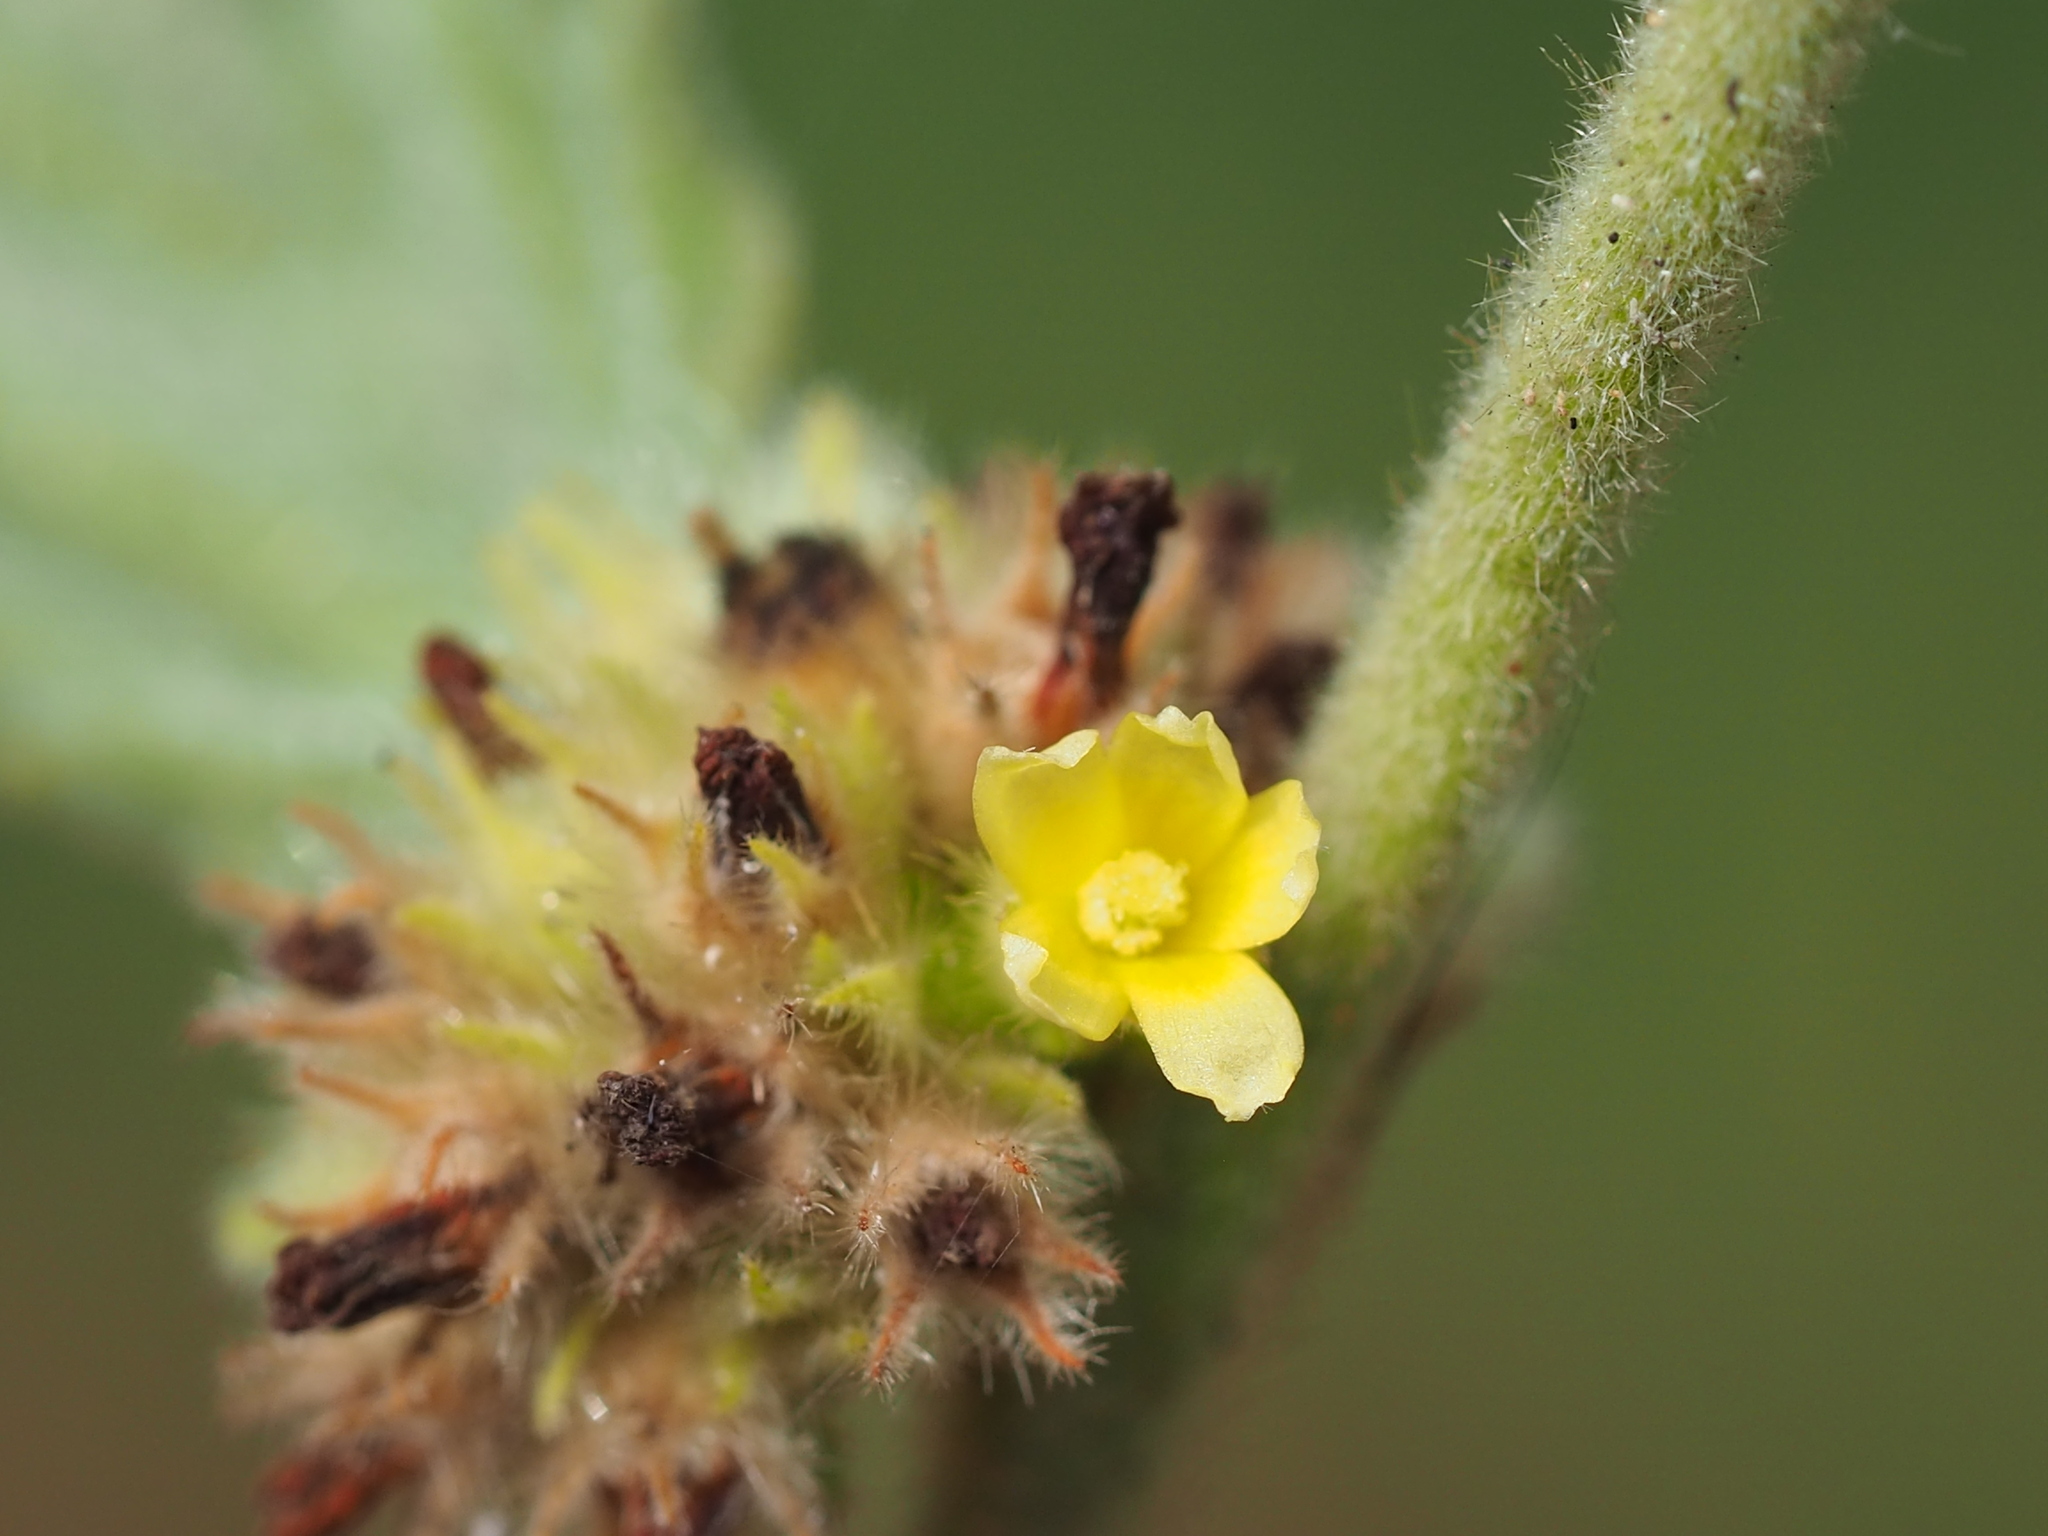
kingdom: Plantae
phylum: Tracheophyta
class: Magnoliopsida
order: Malvales
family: Malvaceae
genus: Waltheria
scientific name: Waltheria indica
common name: Leather-coat
